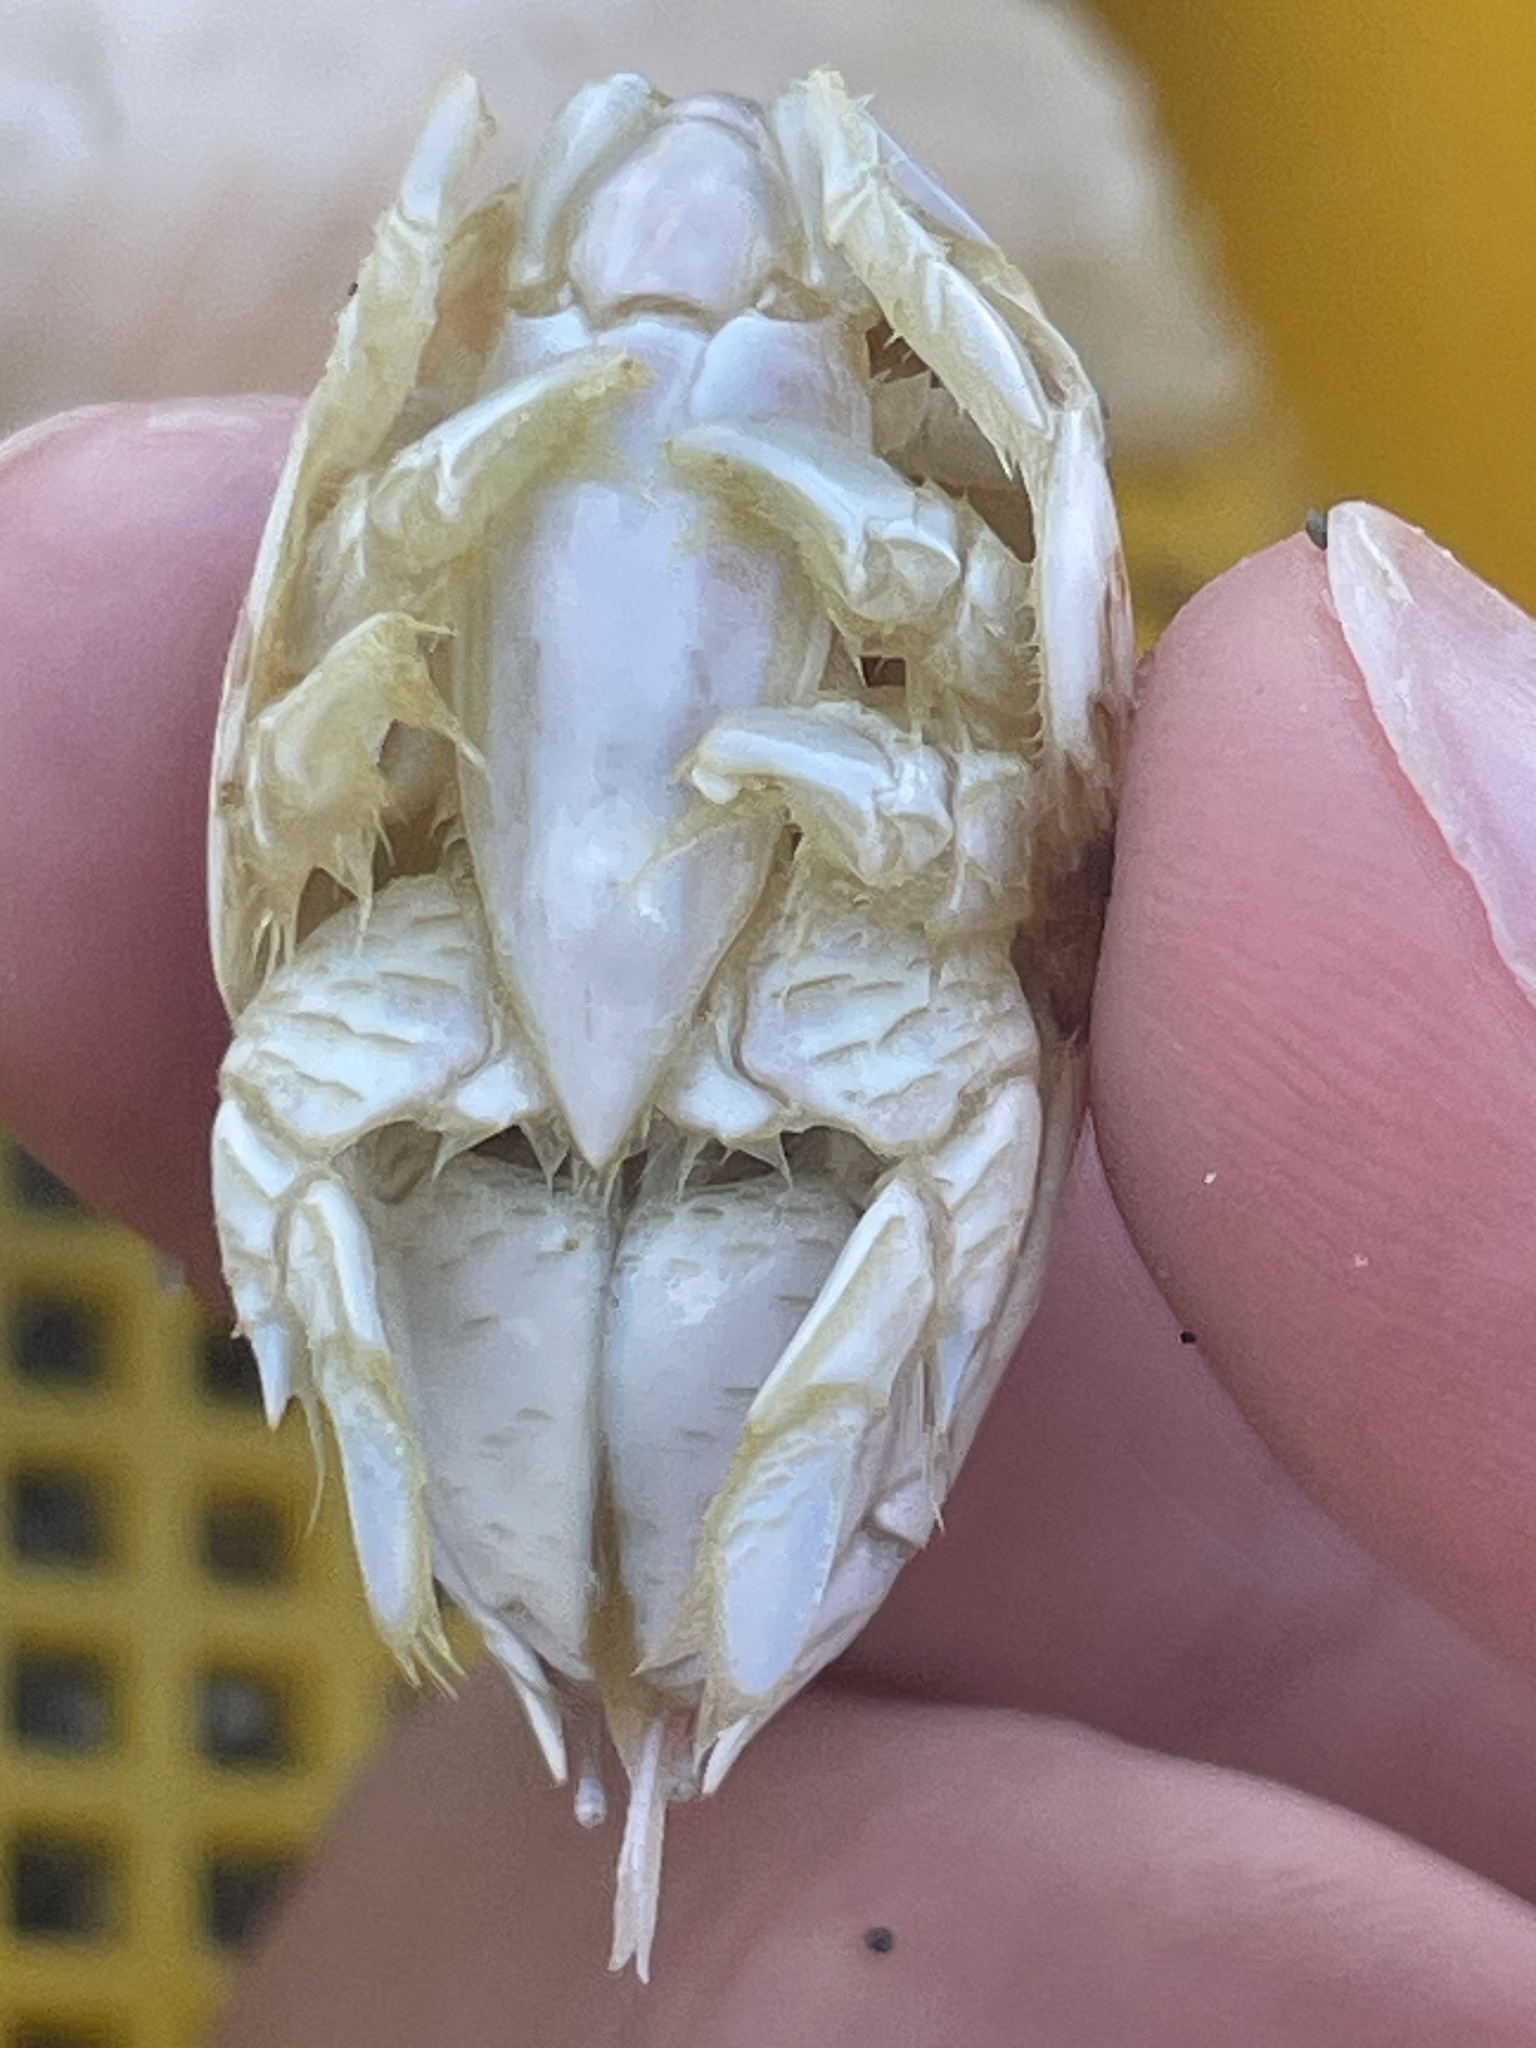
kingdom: Animalia
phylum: Arthropoda
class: Malacostraca
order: Decapoda
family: Hippidae
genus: Emerita
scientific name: Emerita talpoida
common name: Atlantic sand crab
